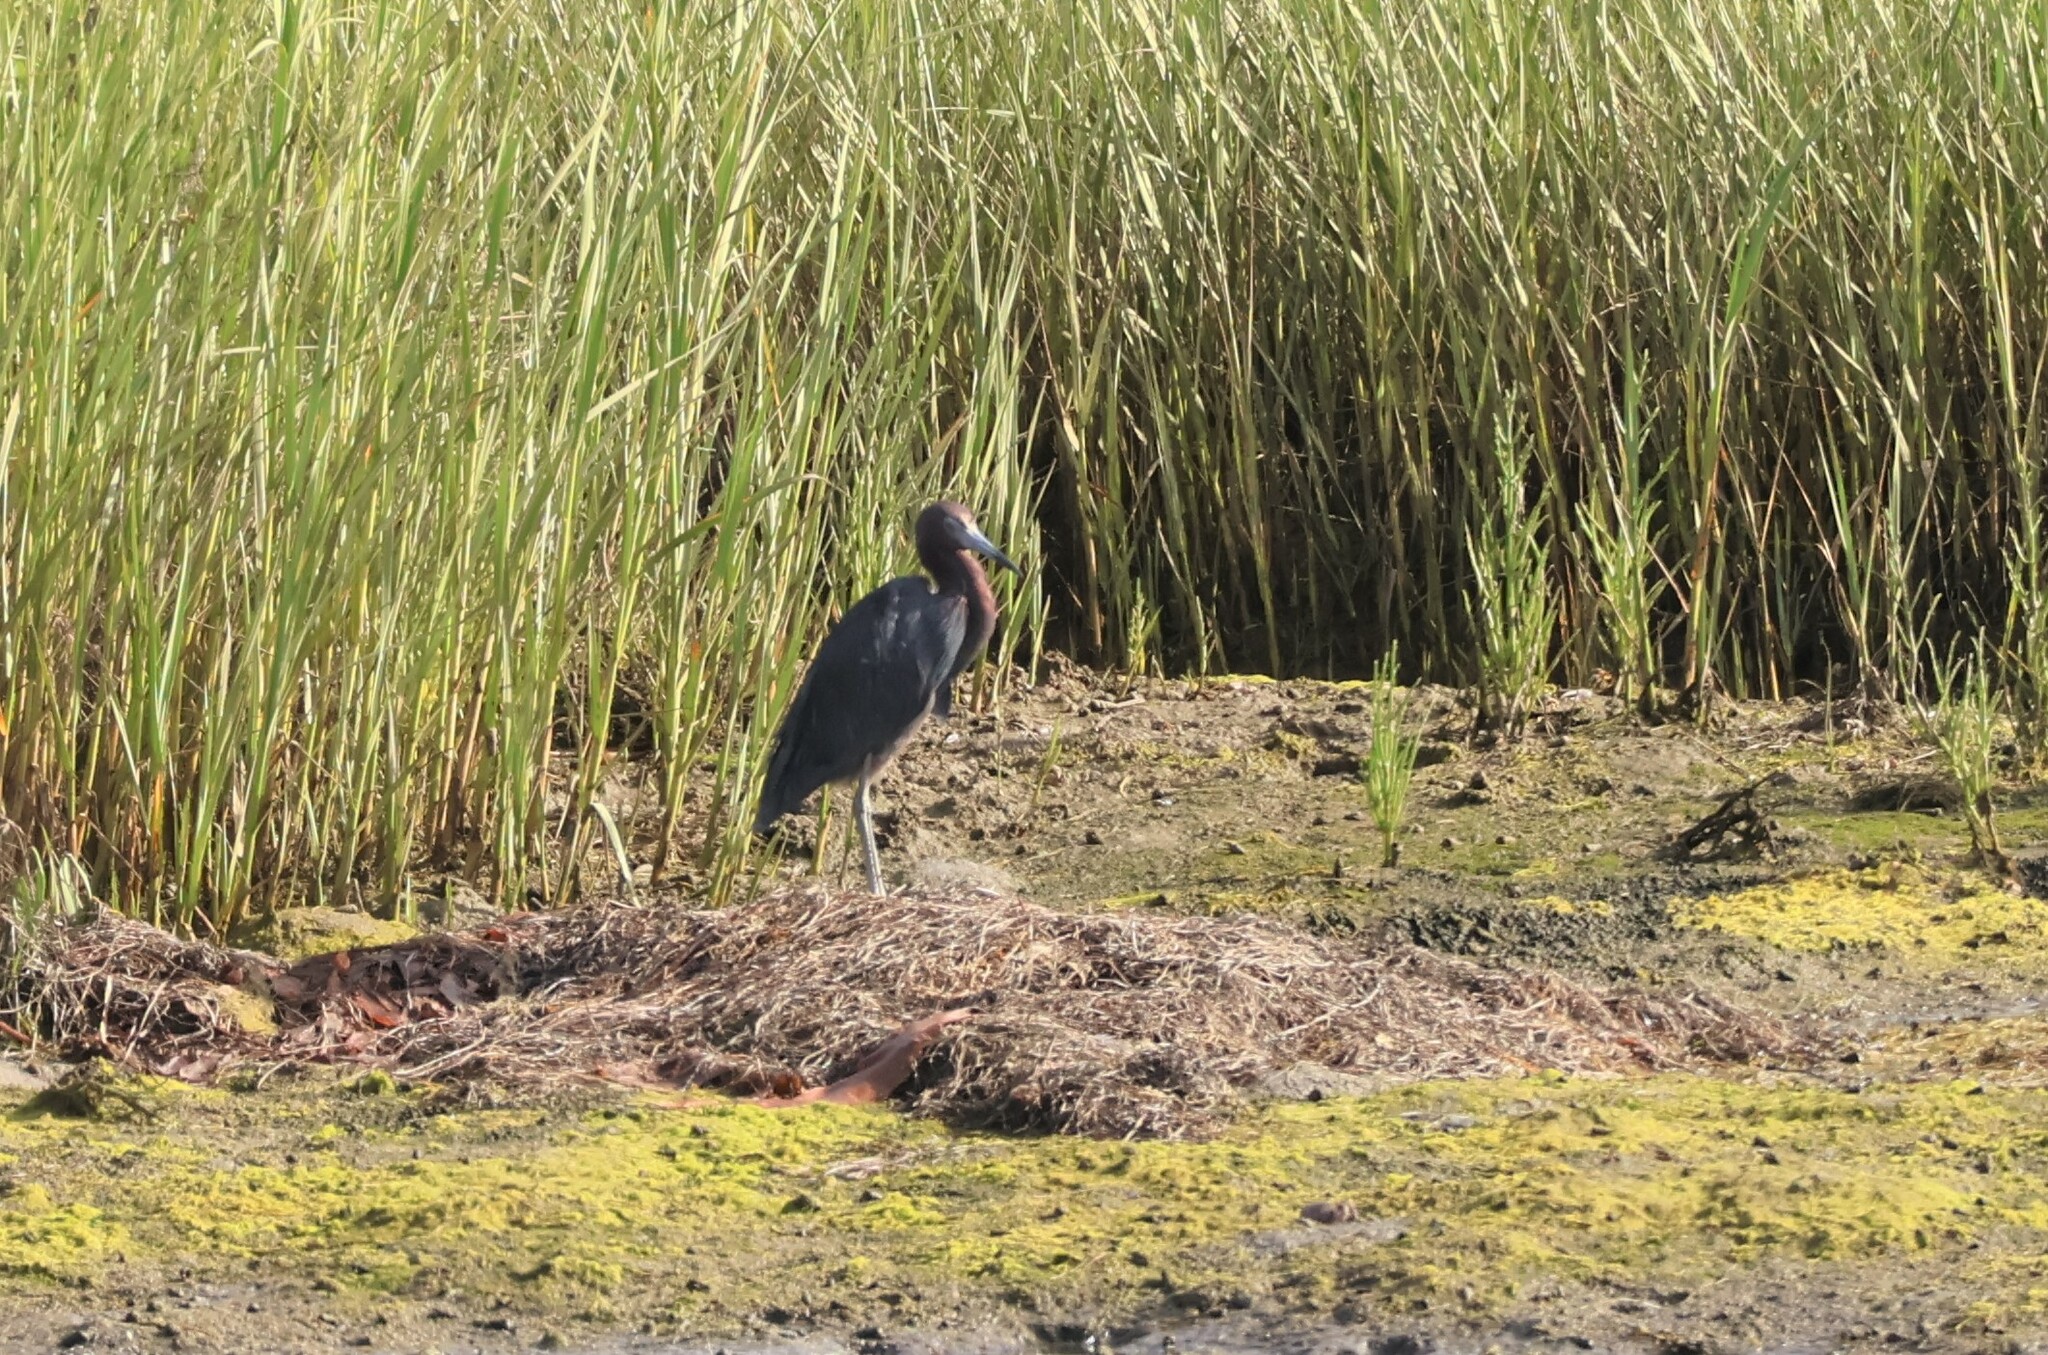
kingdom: Animalia
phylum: Chordata
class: Aves
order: Pelecaniformes
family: Ardeidae
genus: Egretta
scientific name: Egretta caerulea
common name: Little blue heron
